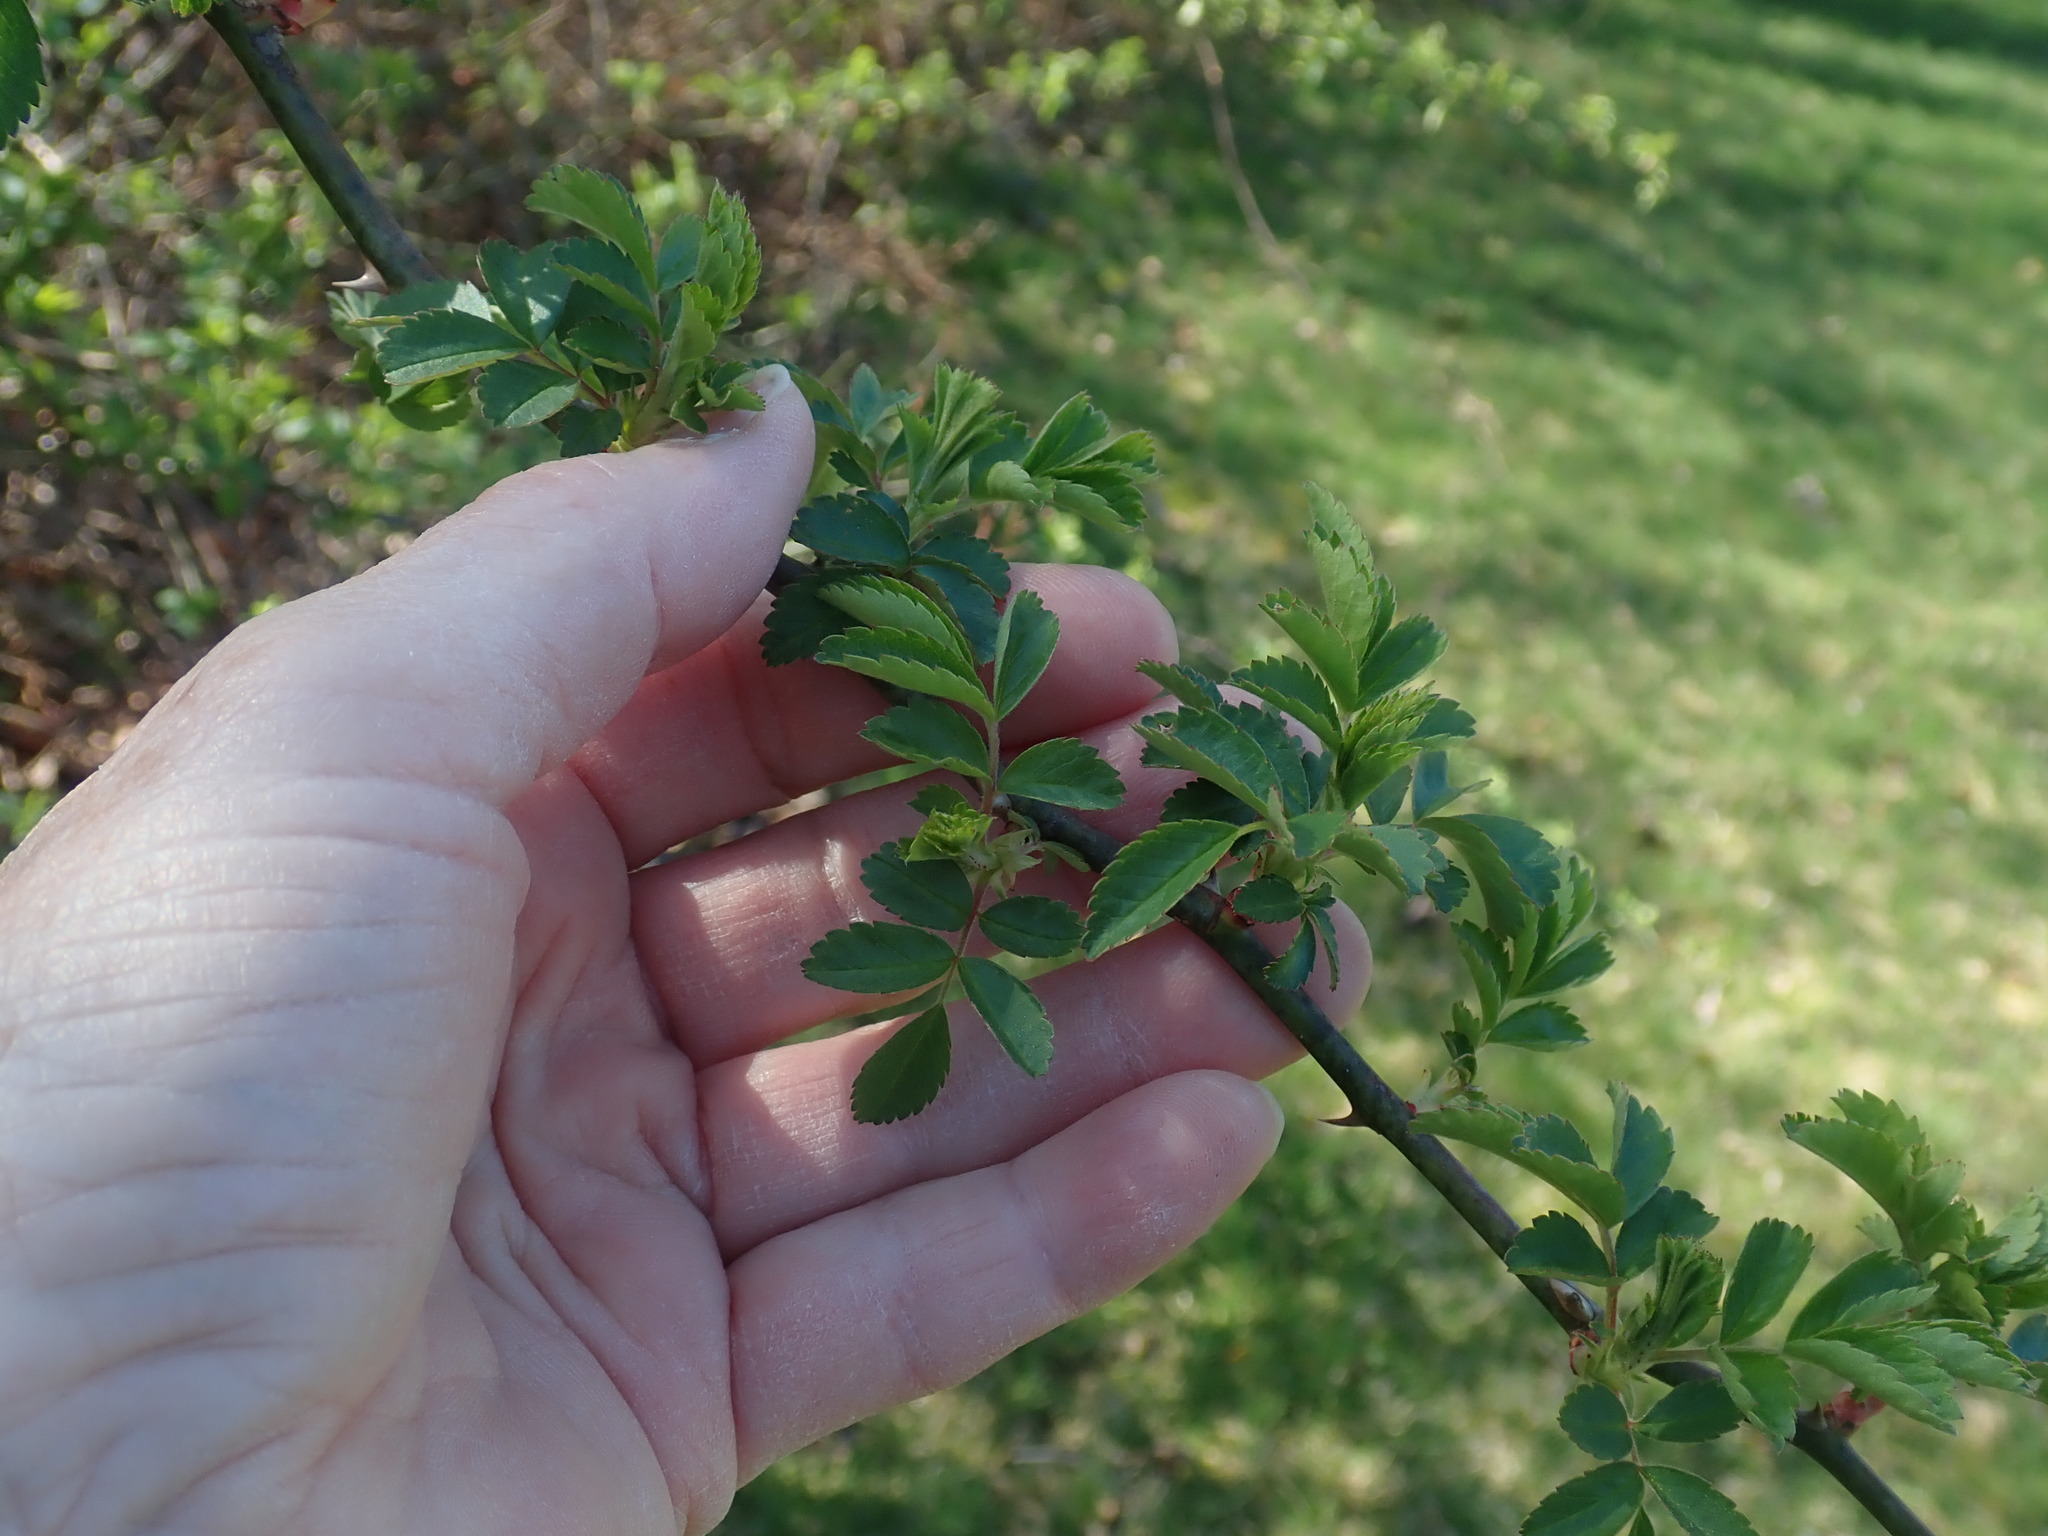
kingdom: Plantae
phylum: Tracheophyta
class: Magnoliopsida
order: Rosales
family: Rosaceae
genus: Rosa
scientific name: Rosa multiflora
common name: Multiflora rose
